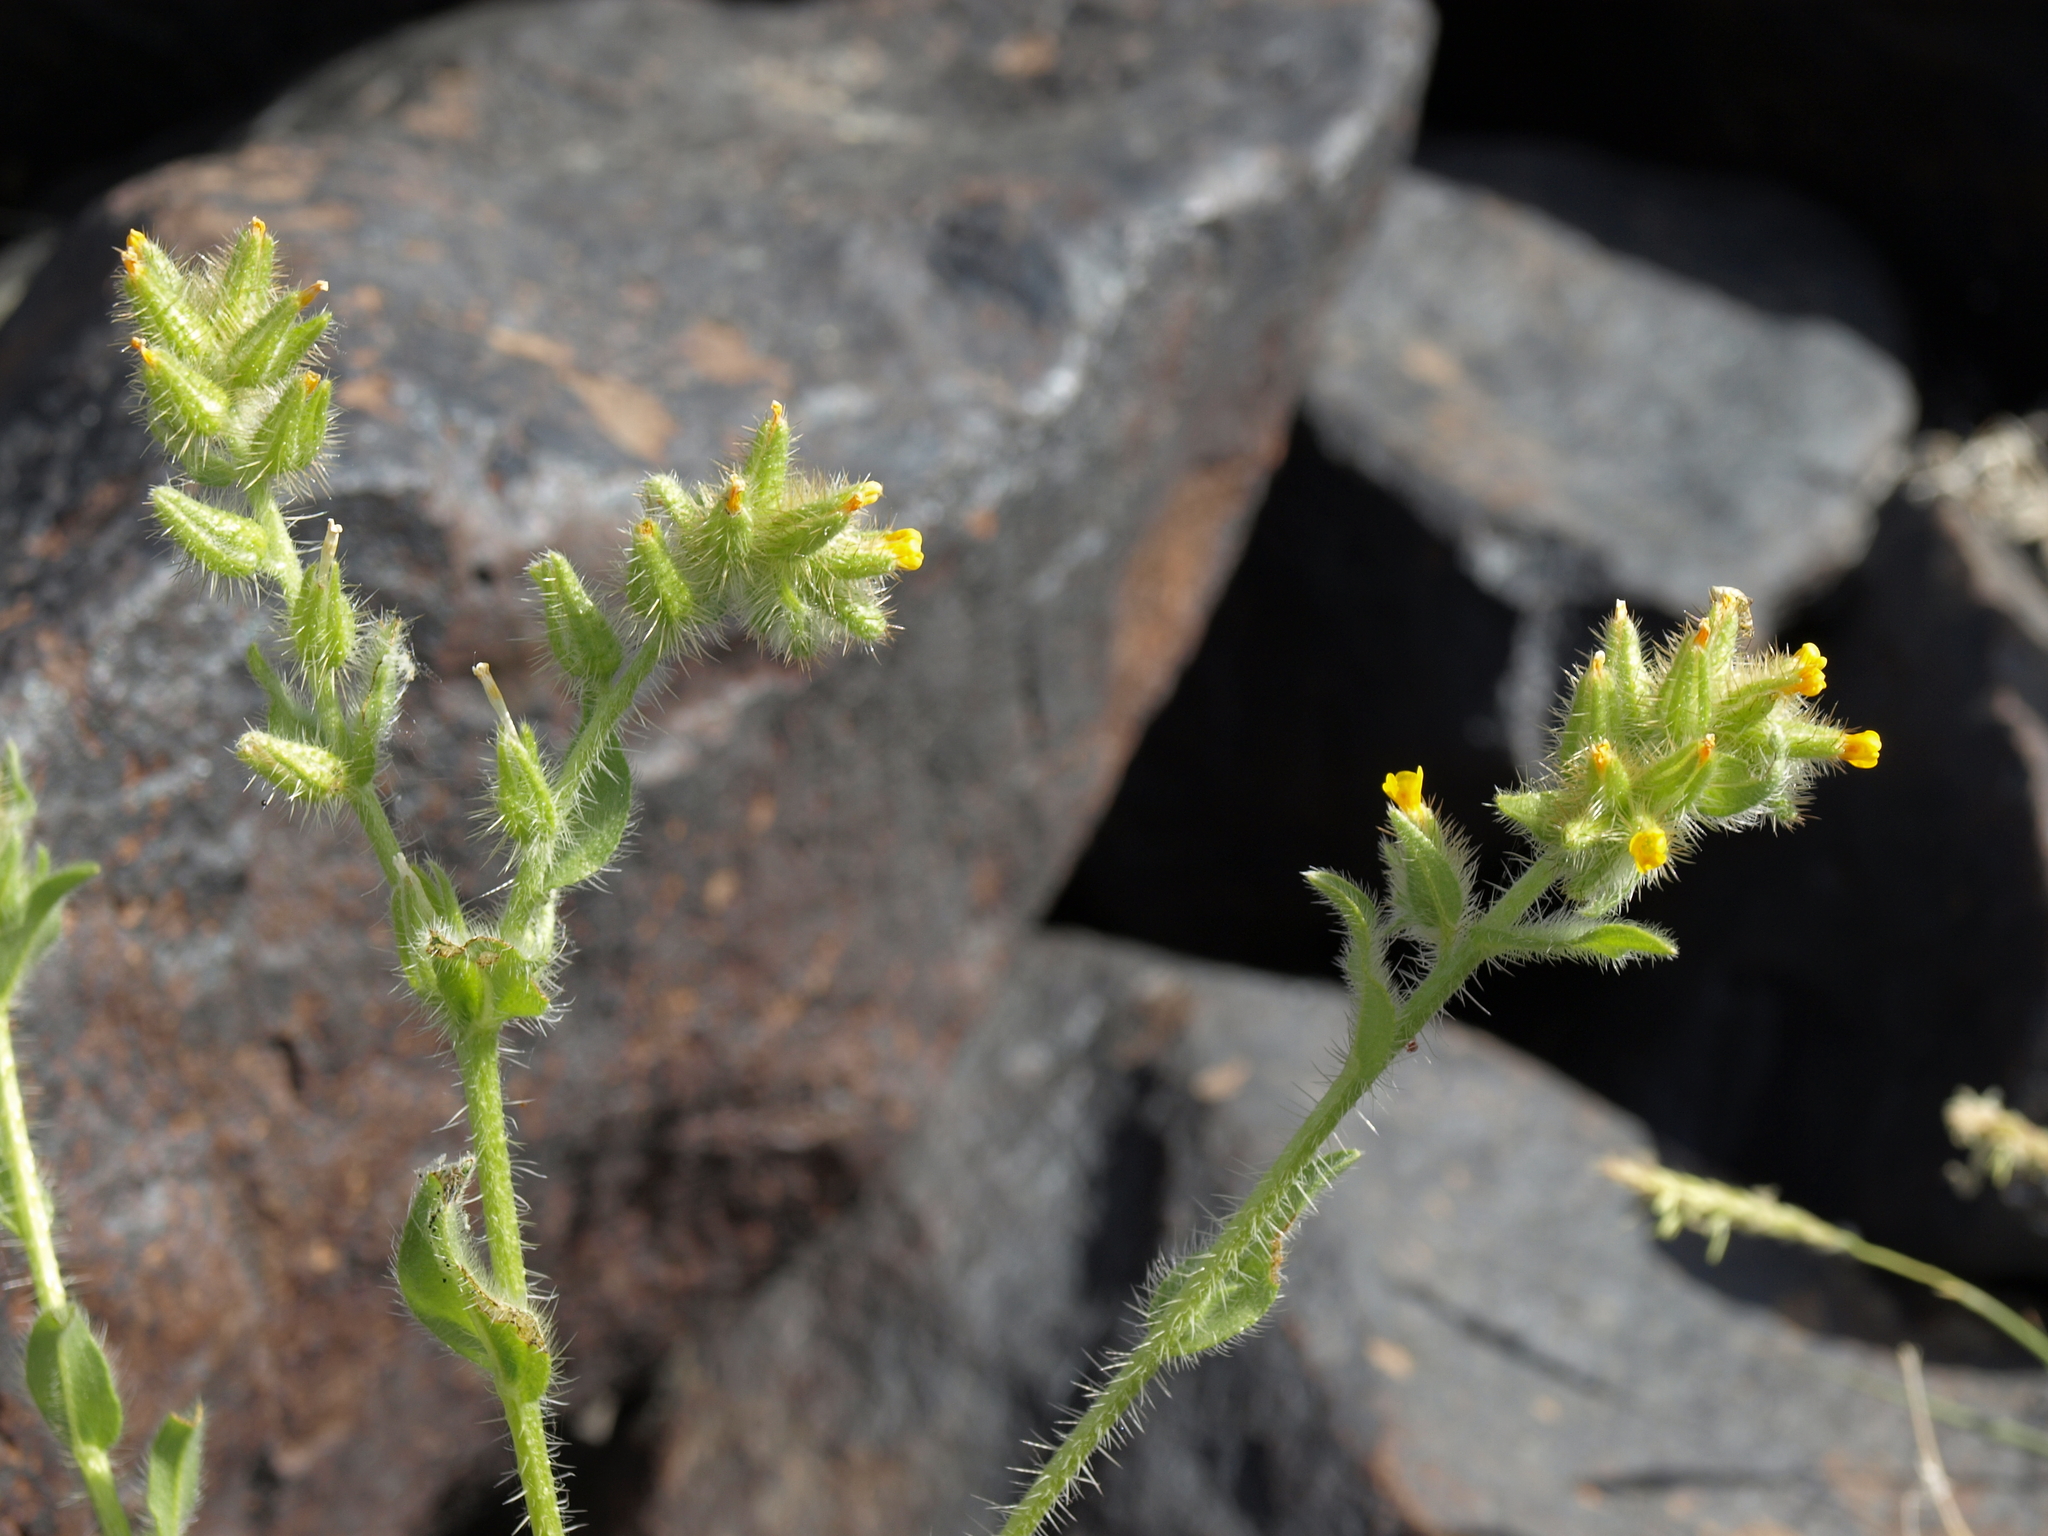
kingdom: Plantae
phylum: Tracheophyta
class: Magnoliopsida
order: Boraginales
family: Boraginaceae
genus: Amsinckia
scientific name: Amsinckia tessellata
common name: Tessellate fiddleneck
